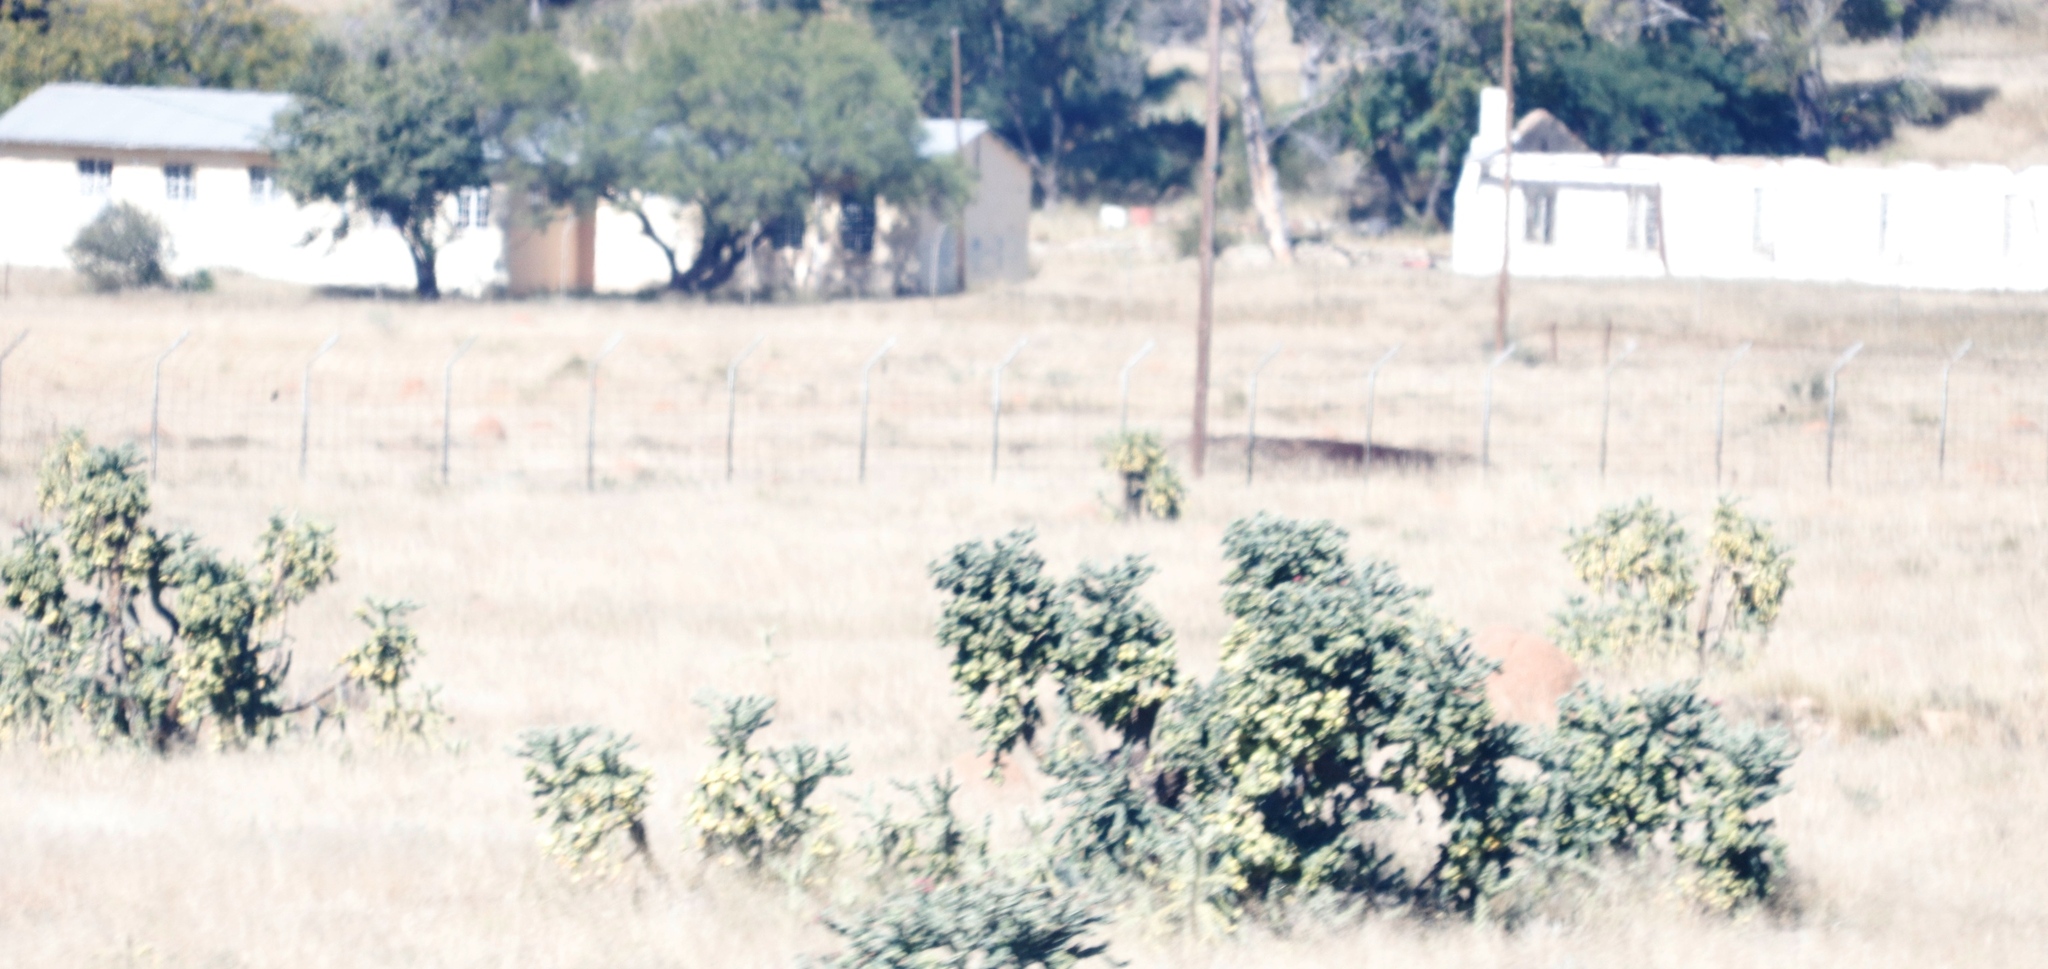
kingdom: Plantae
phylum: Tracheophyta
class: Magnoliopsida
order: Caryophyllales
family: Cactaceae
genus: Cylindropuntia
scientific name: Cylindropuntia imbricata
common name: Candelabrum cactus
